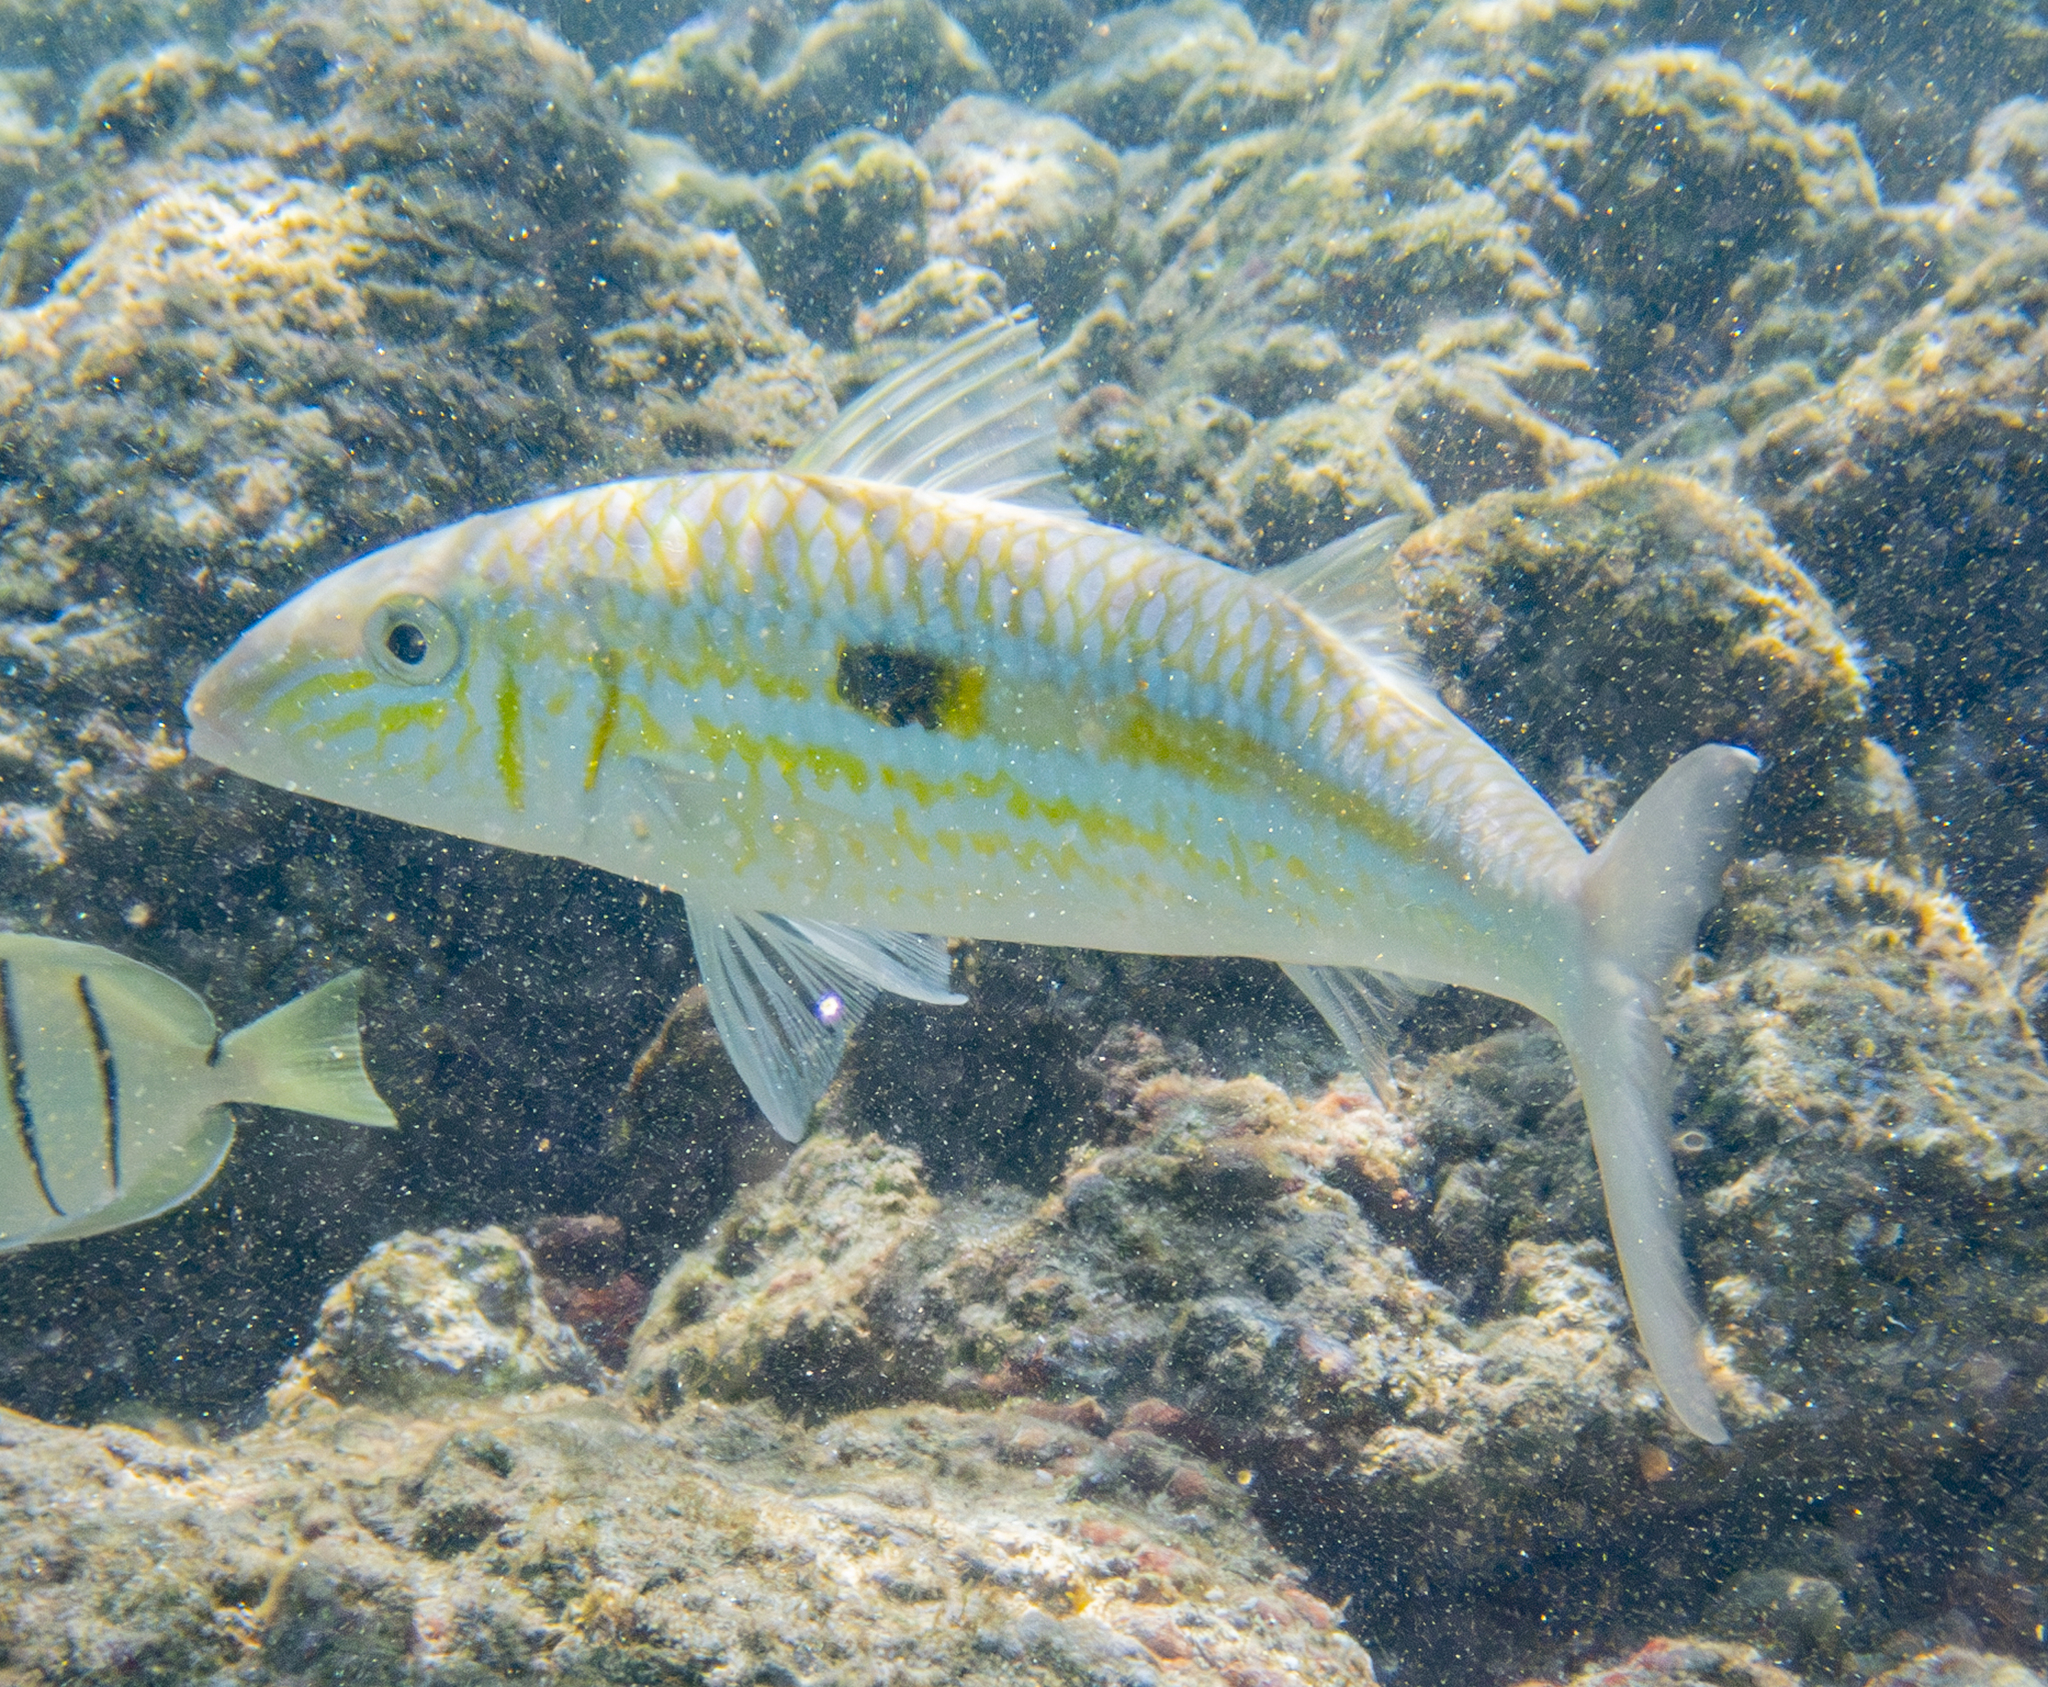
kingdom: Animalia
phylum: Chordata
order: Perciformes
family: Mullidae
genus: Mulloidichthys
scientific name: Mulloidichthys flavolineatus
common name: Yellowstripe goatfish
